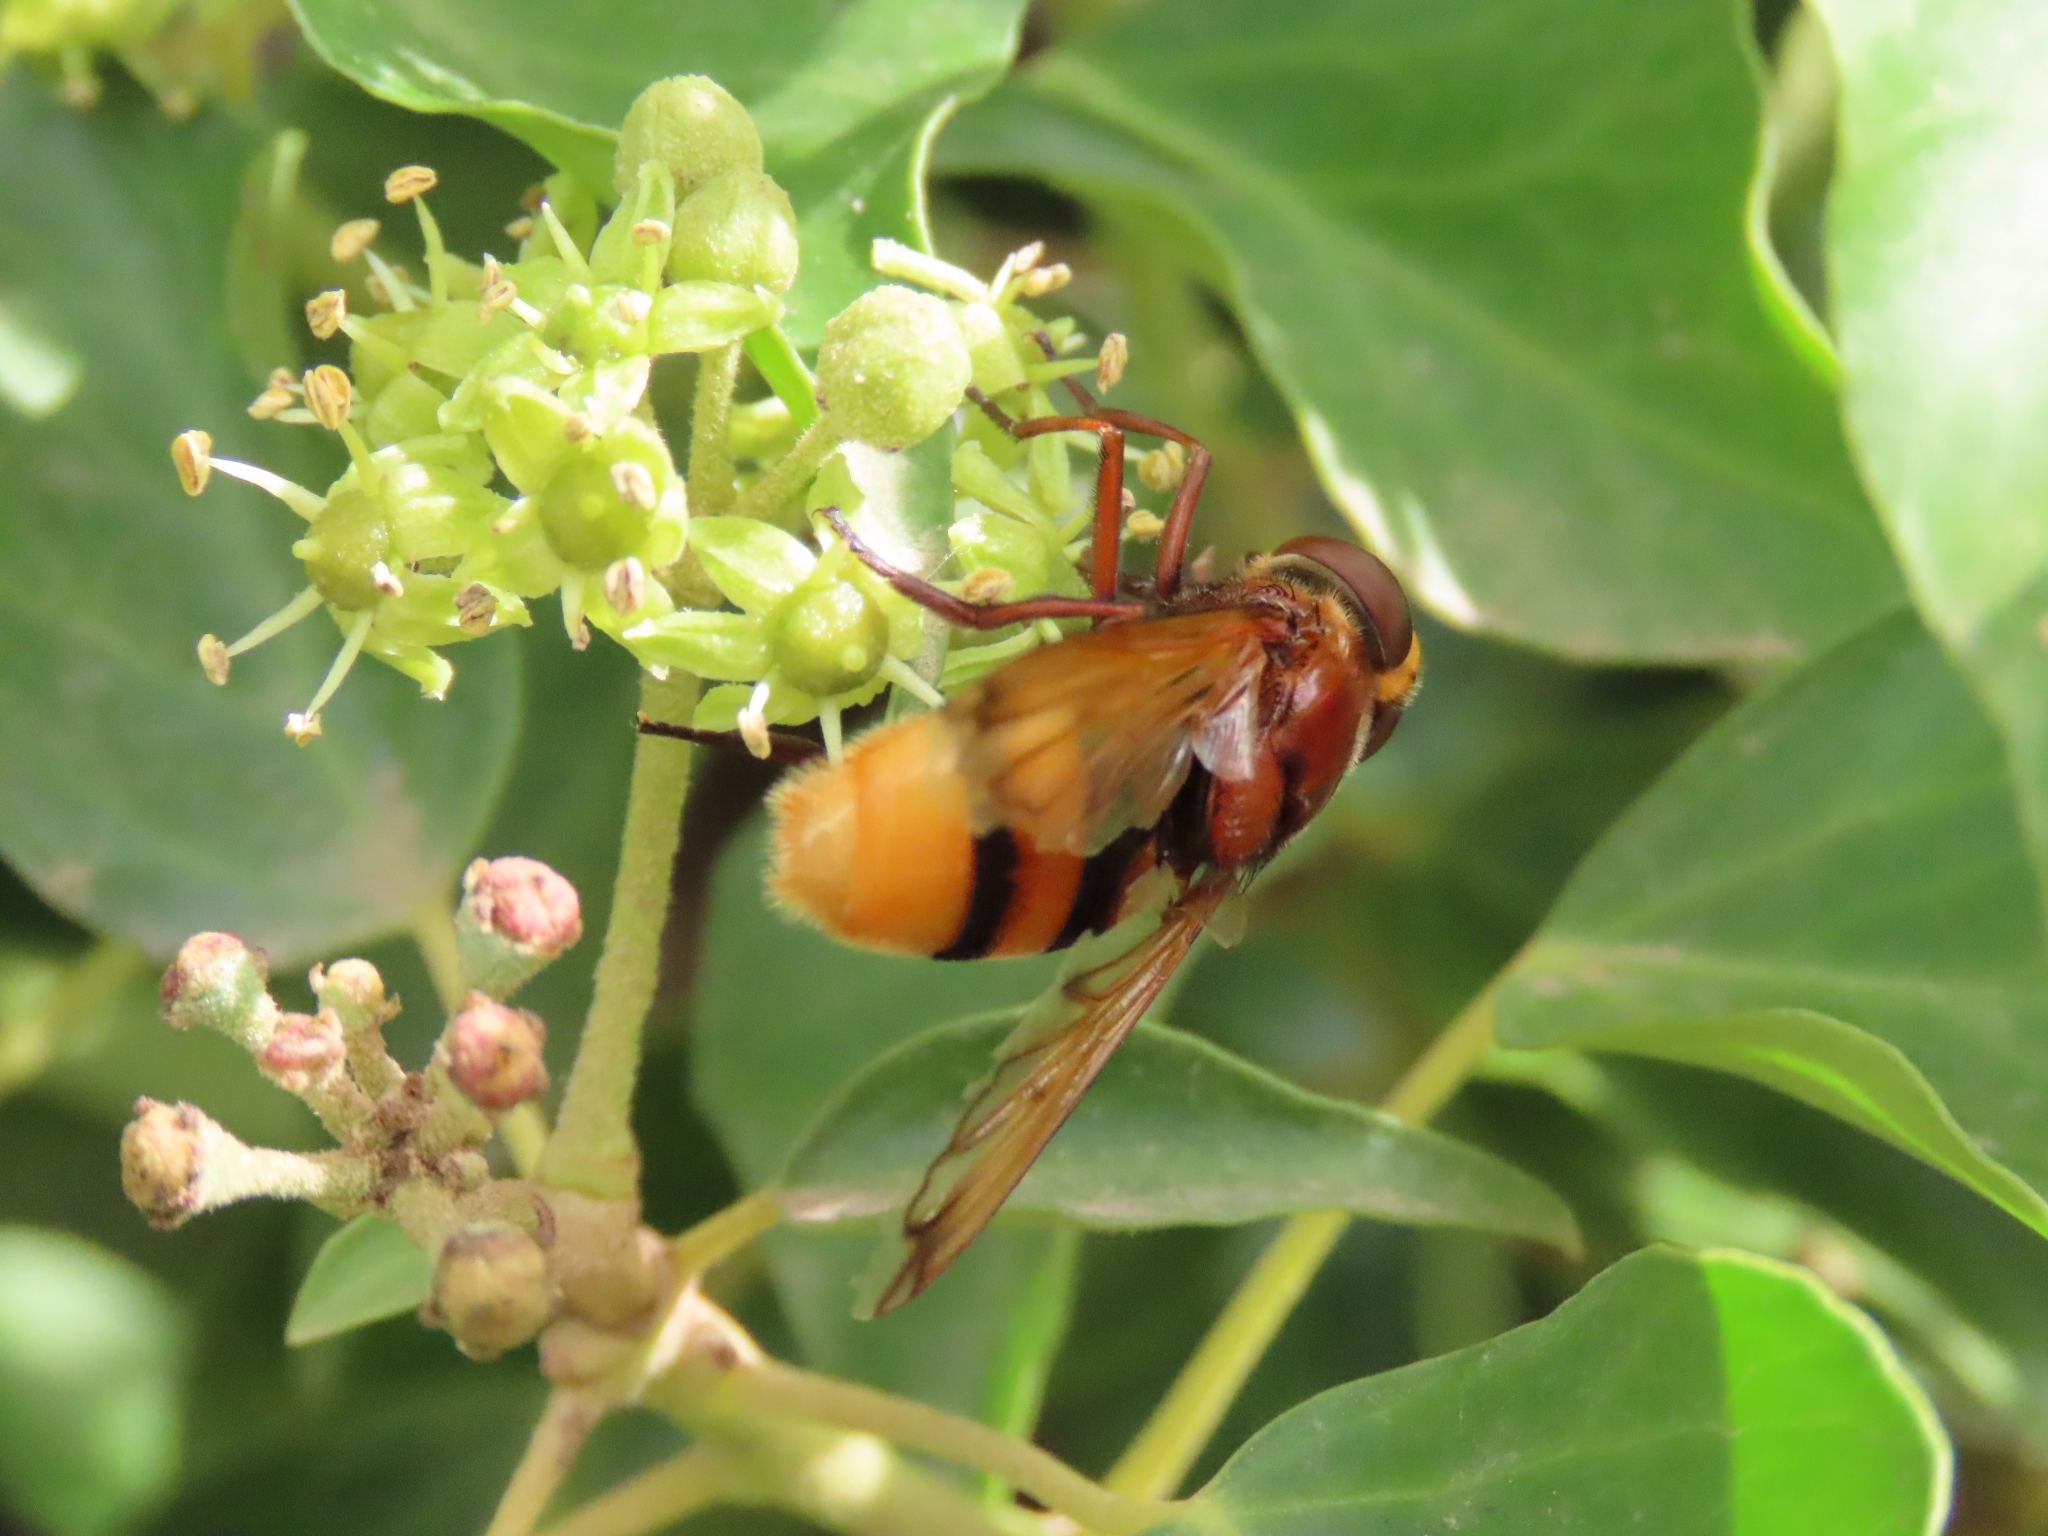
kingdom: Animalia
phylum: Arthropoda
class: Insecta
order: Diptera
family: Syrphidae
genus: Volucella
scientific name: Volucella zonaria
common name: Hornet hoverfly
